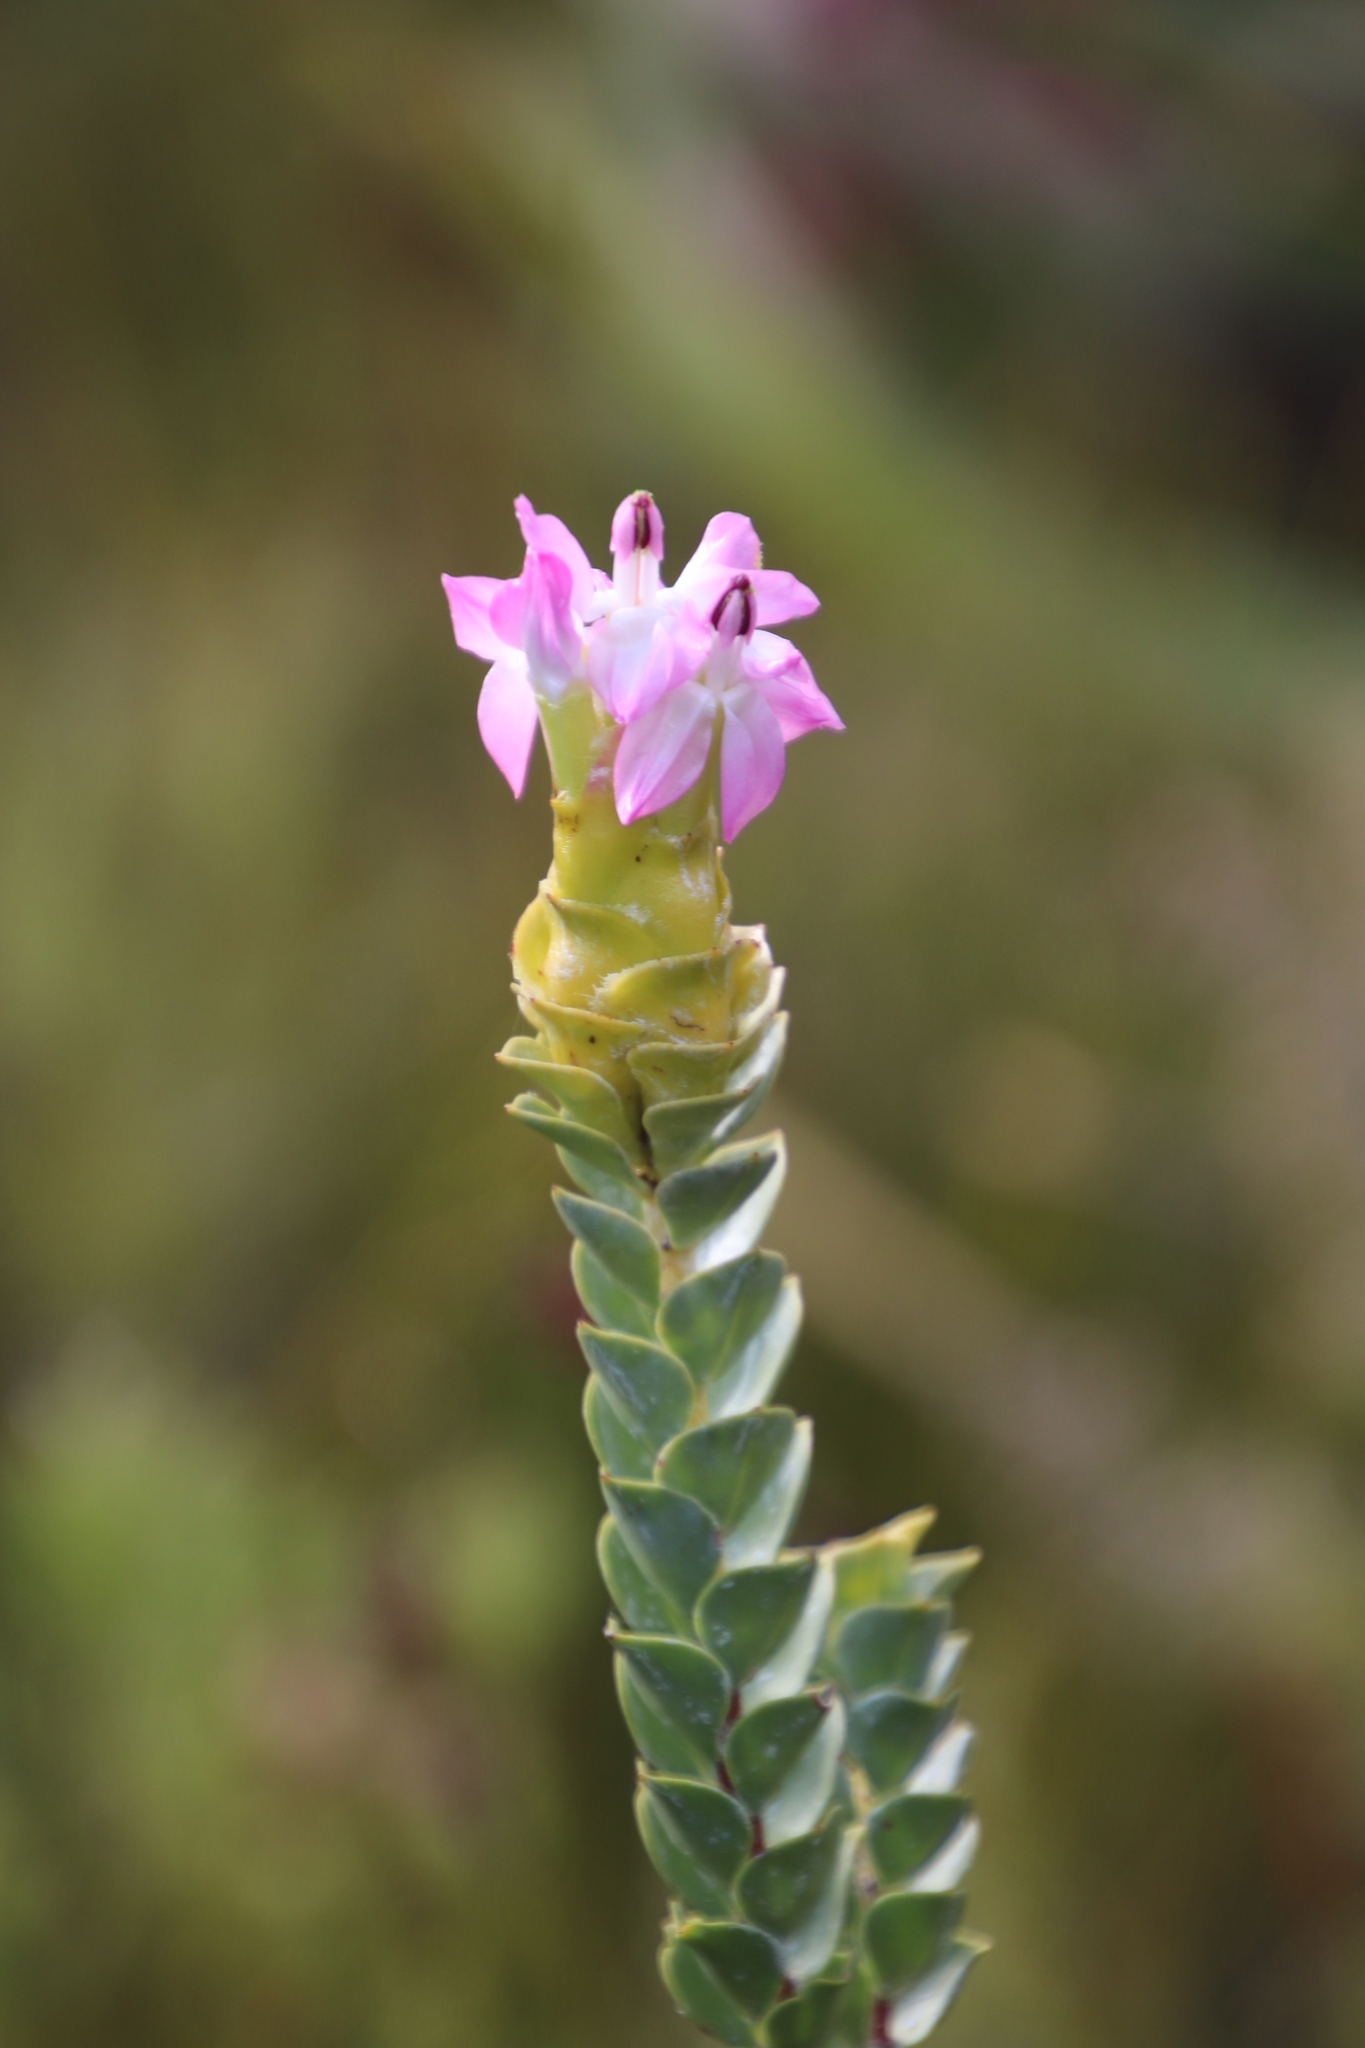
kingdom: Plantae
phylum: Tracheophyta
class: Magnoliopsida
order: Myrtales
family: Penaeaceae
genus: Saltera
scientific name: Saltera sarcocolla
